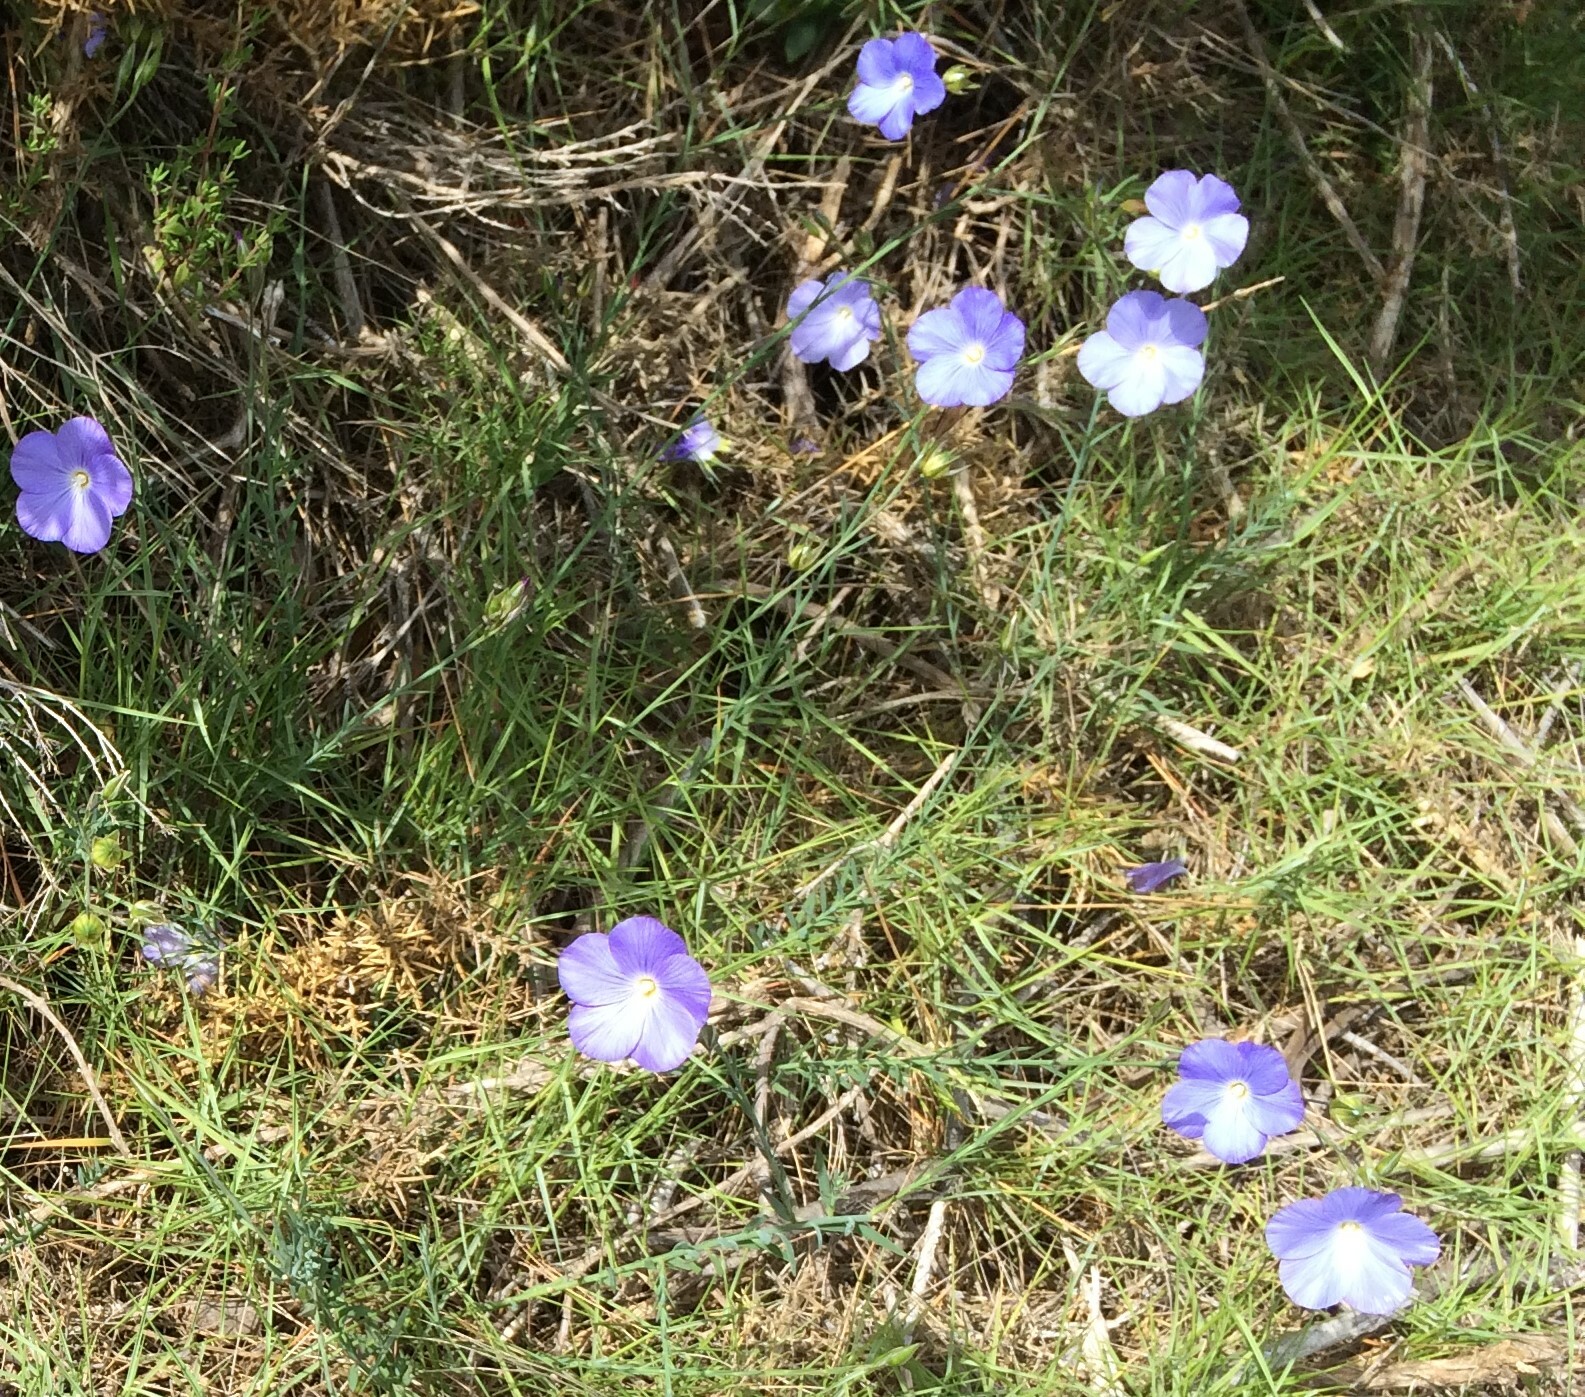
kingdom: Plantae
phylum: Tracheophyta
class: Magnoliopsida
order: Malpighiales
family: Linaceae
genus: Linum
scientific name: Linum narbonense
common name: Flax
